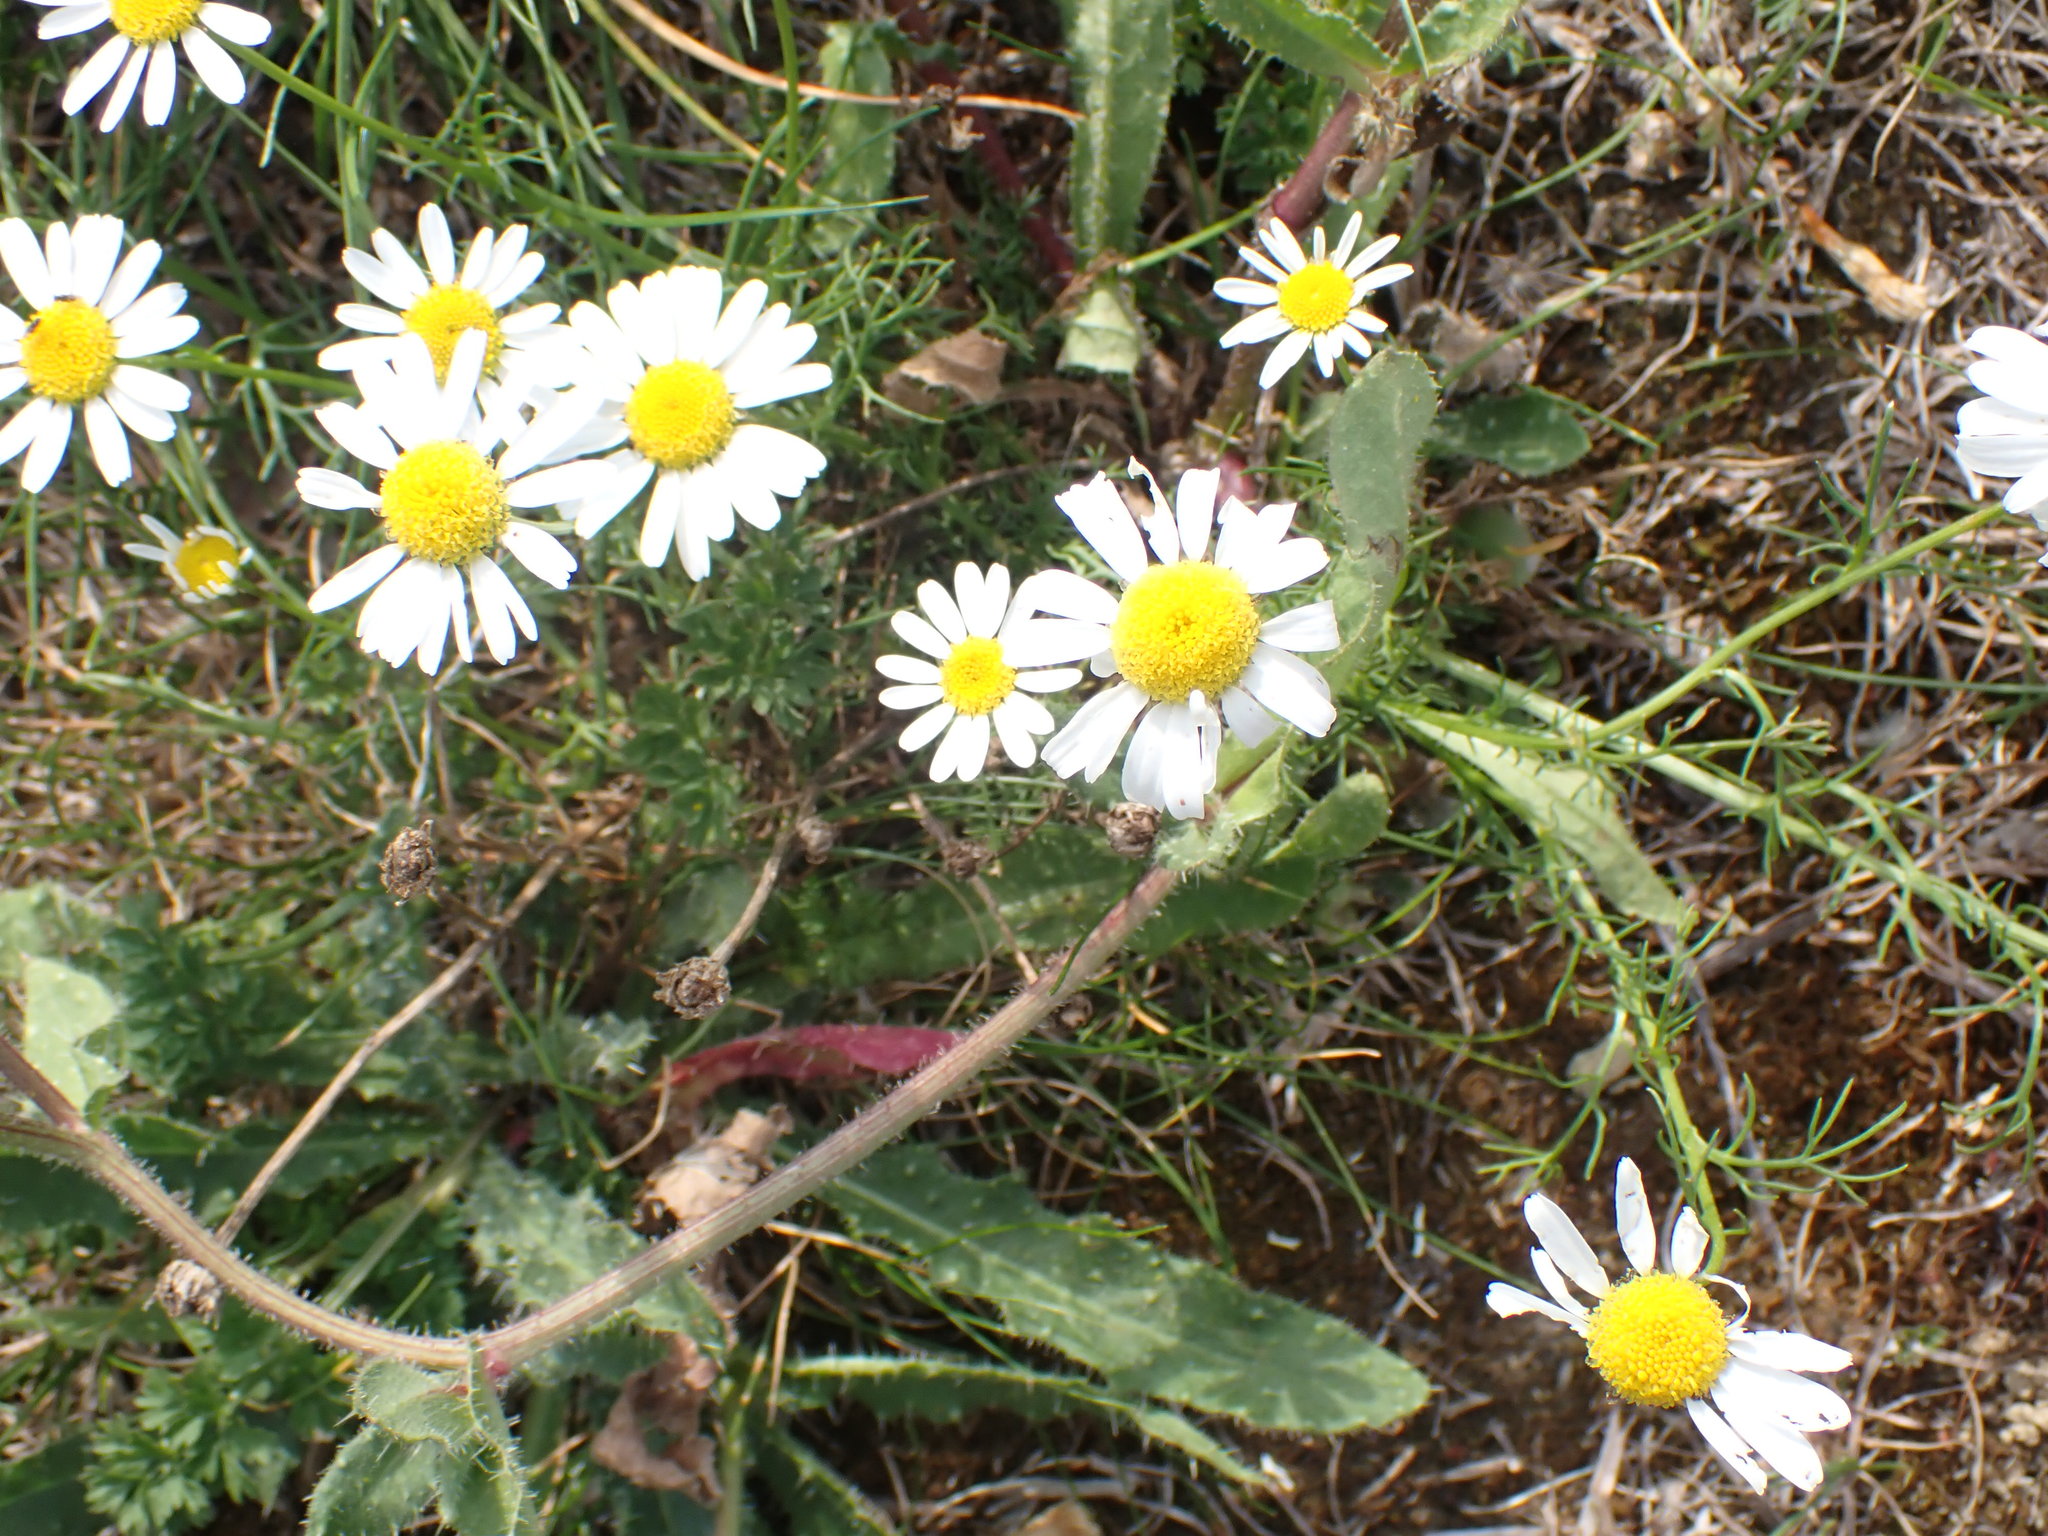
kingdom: Plantae
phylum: Tracheophyta
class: Magnoliopsida
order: Asterales
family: Asteraceae
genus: Tripleurospermum
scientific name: Tripleurospermum inodorum
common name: Scentless mayweed
